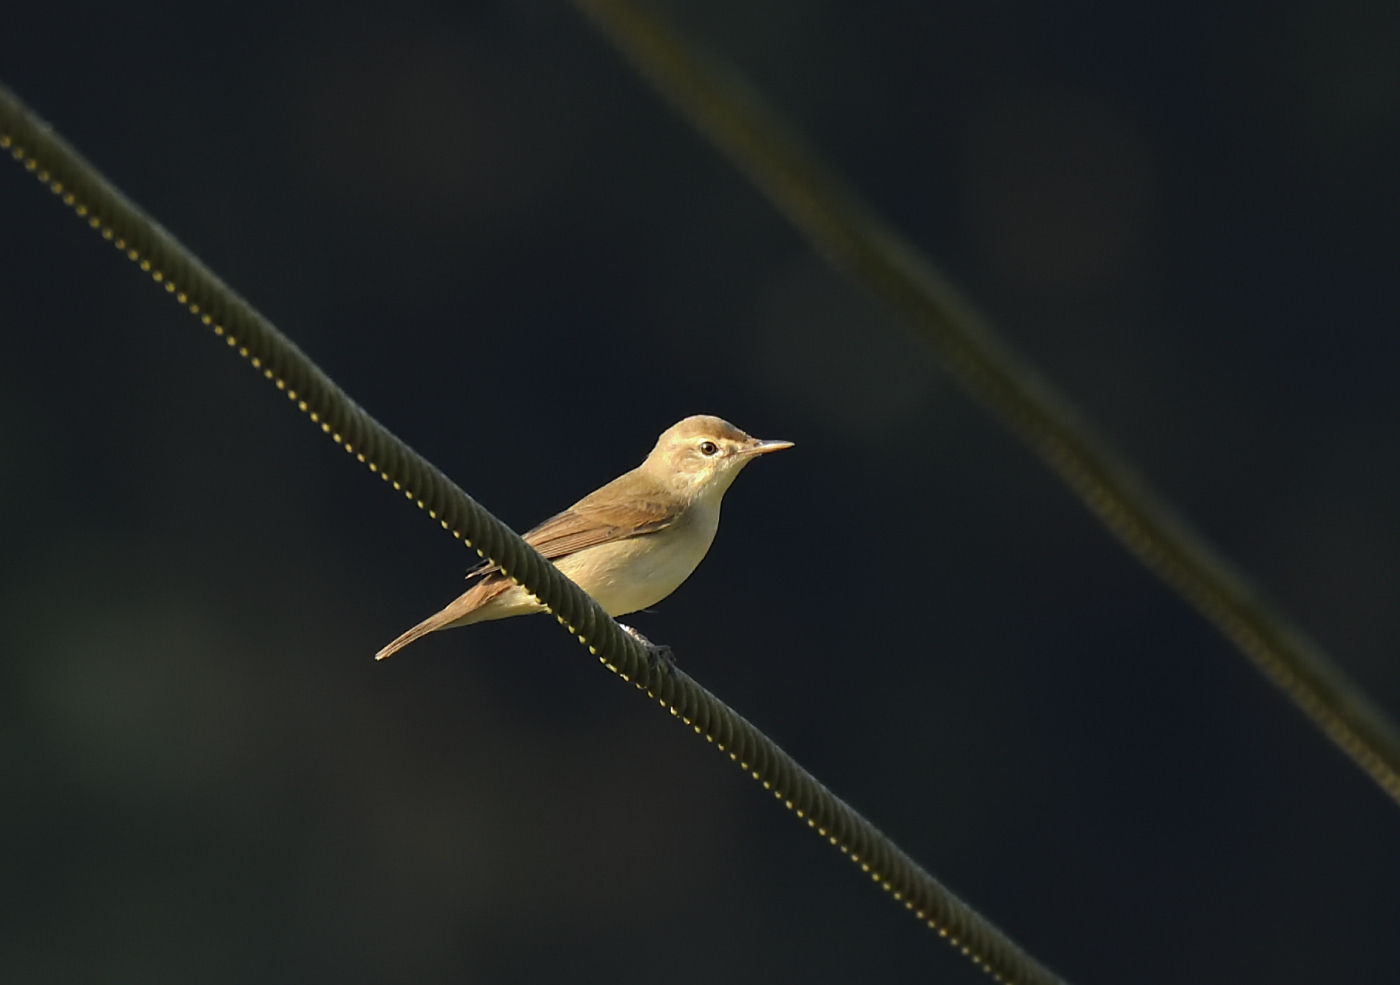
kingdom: Animalia
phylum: Chordata
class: Aves
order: Passeriformes
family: Acrocephalidae
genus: Acrocephalus
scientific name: Acrocephalus dumetorum
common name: Blyth's reed warbler
